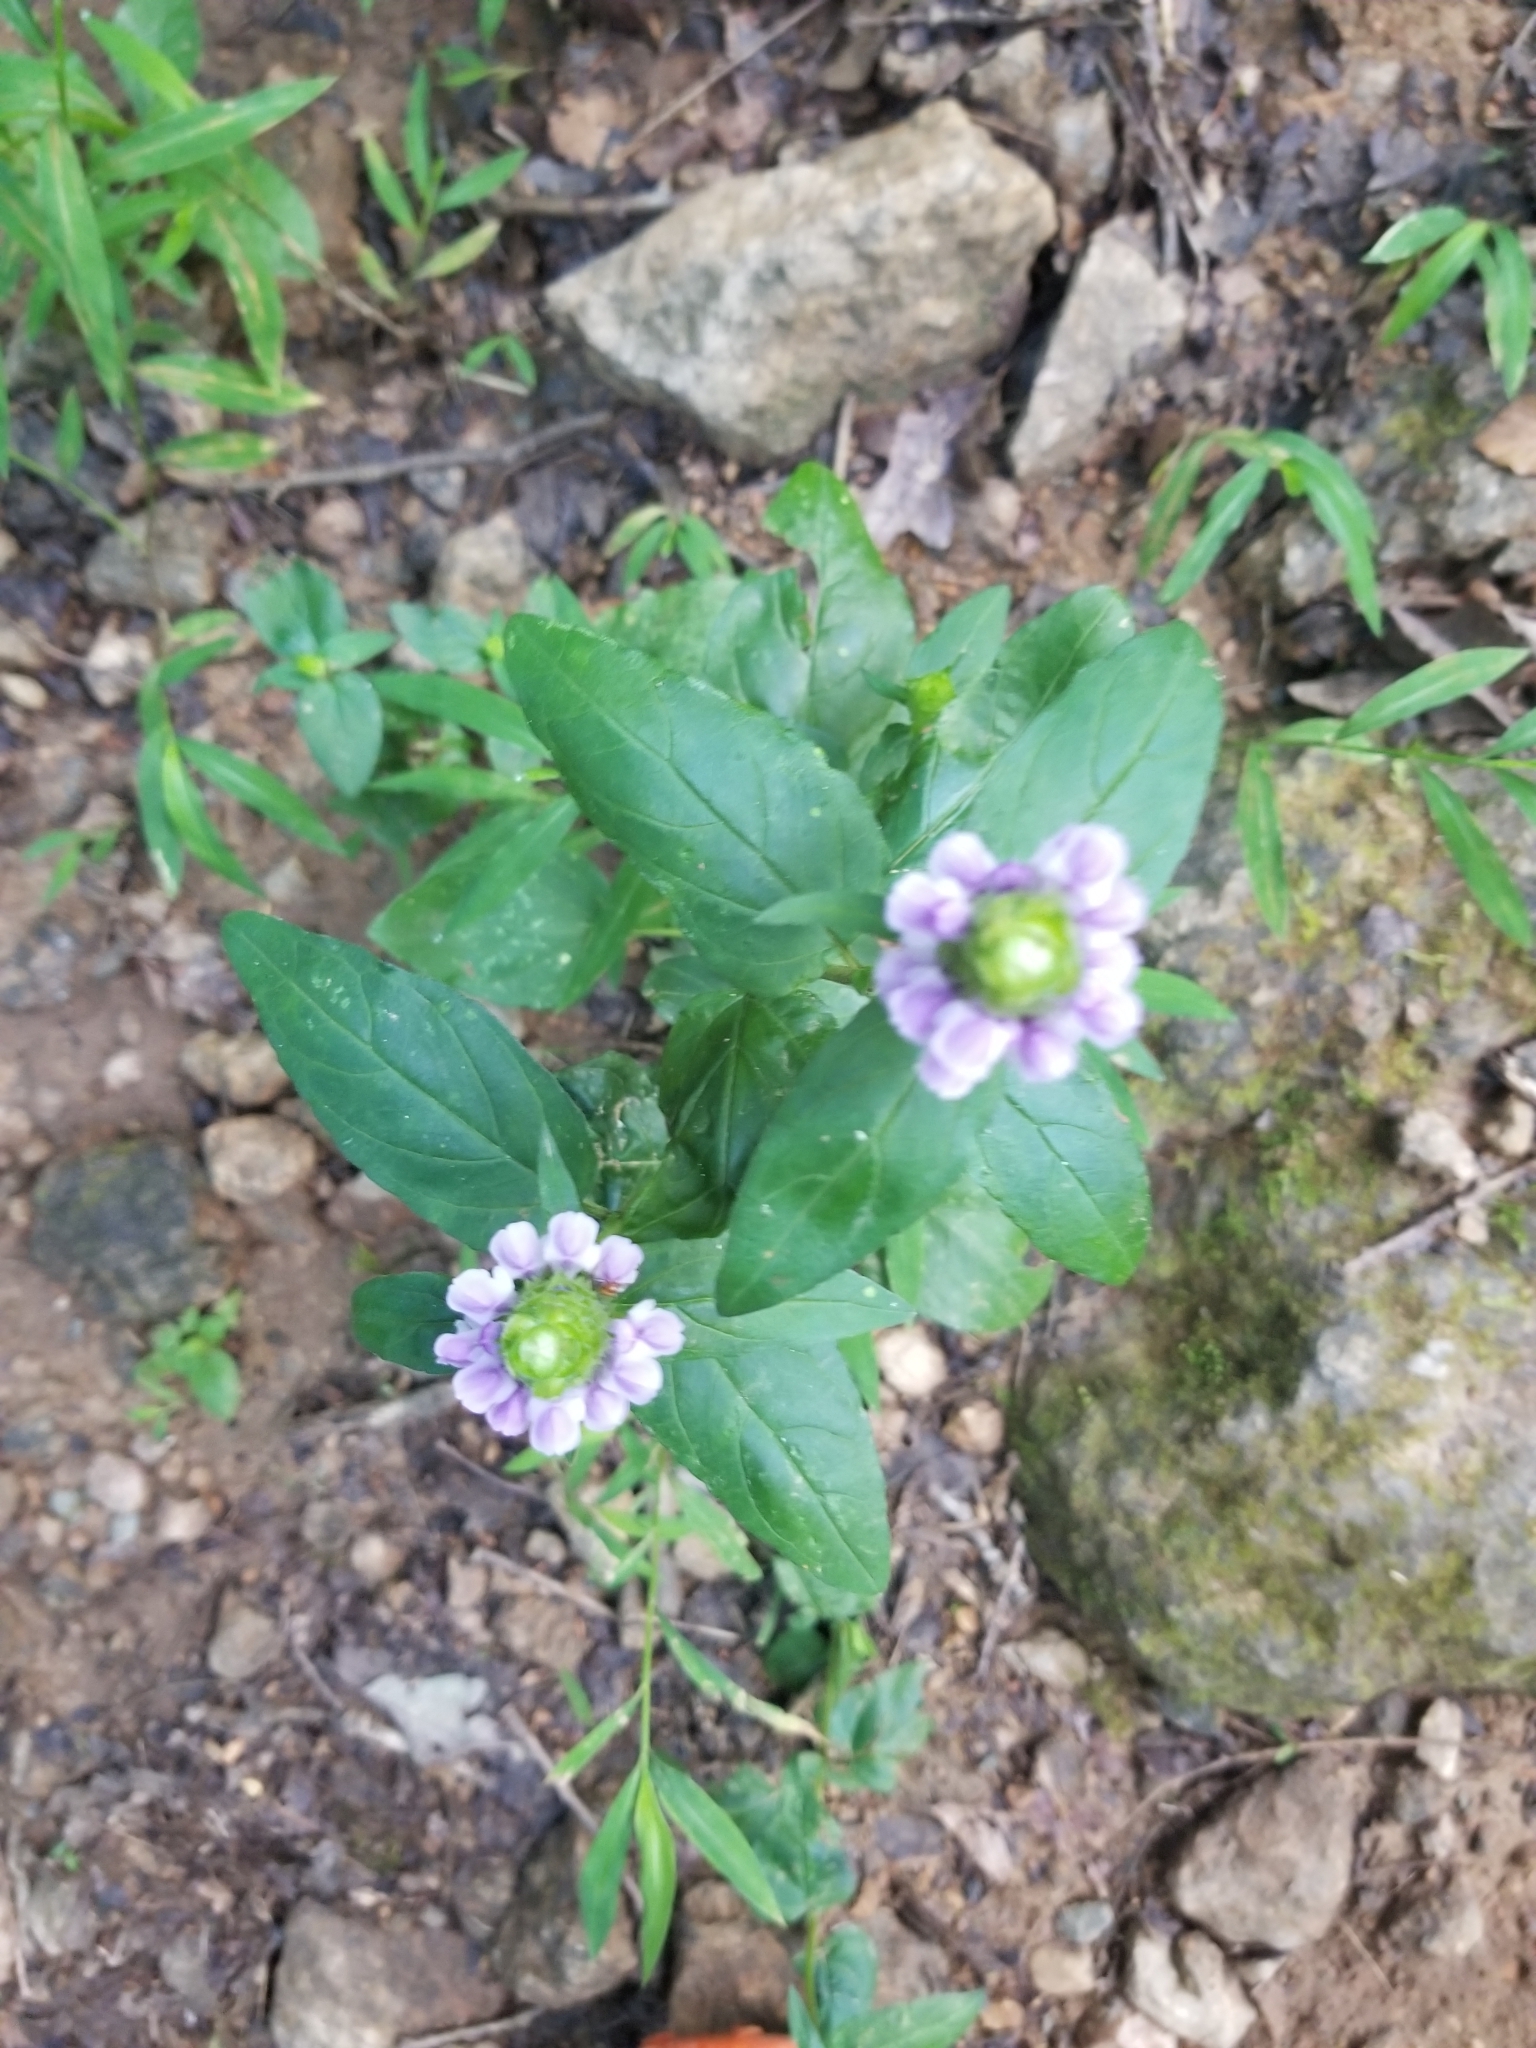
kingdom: Plantae
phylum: Tracheophyta
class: Magnoliopsida
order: Lamiales
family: Lamiaceae
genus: Prunella
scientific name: Prunella vulgaris
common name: Heal-all
